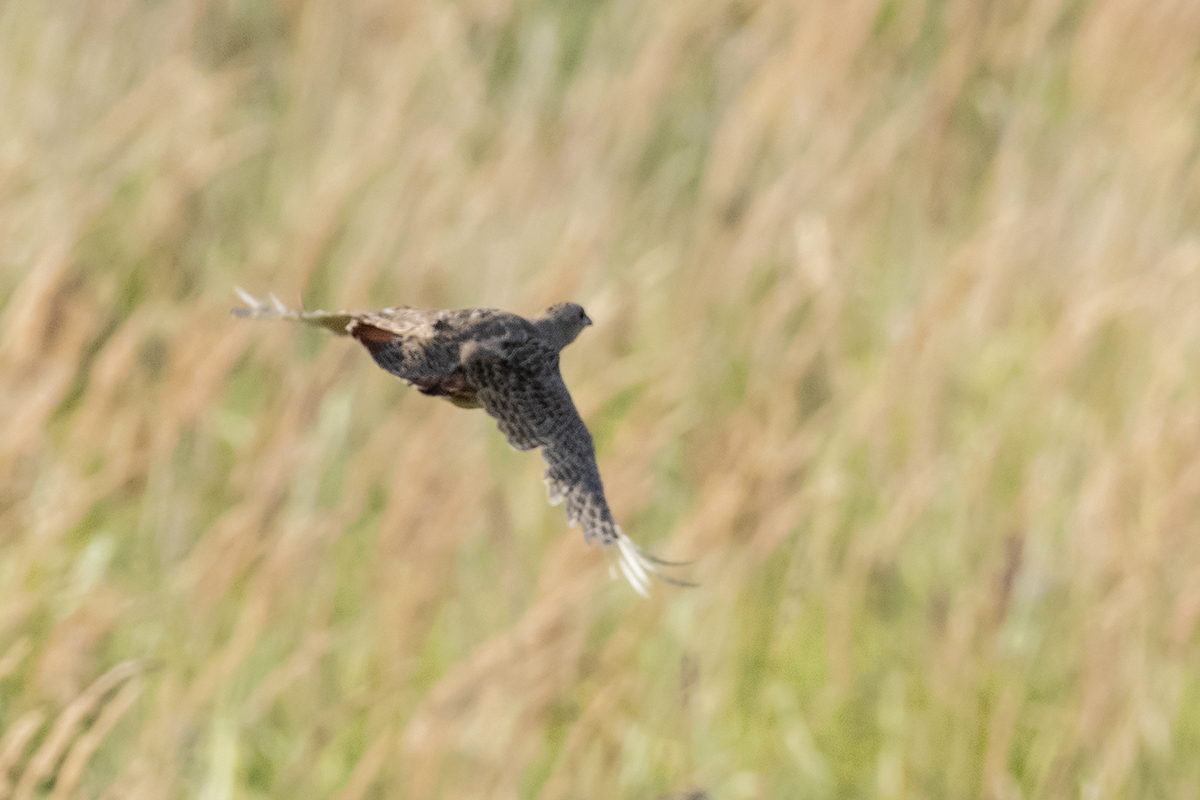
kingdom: Animalia
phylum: Chordata
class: Aves
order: Galliformes
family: Phasianidae
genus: Perdix
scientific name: Perdix perdix
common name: Grey partridge
